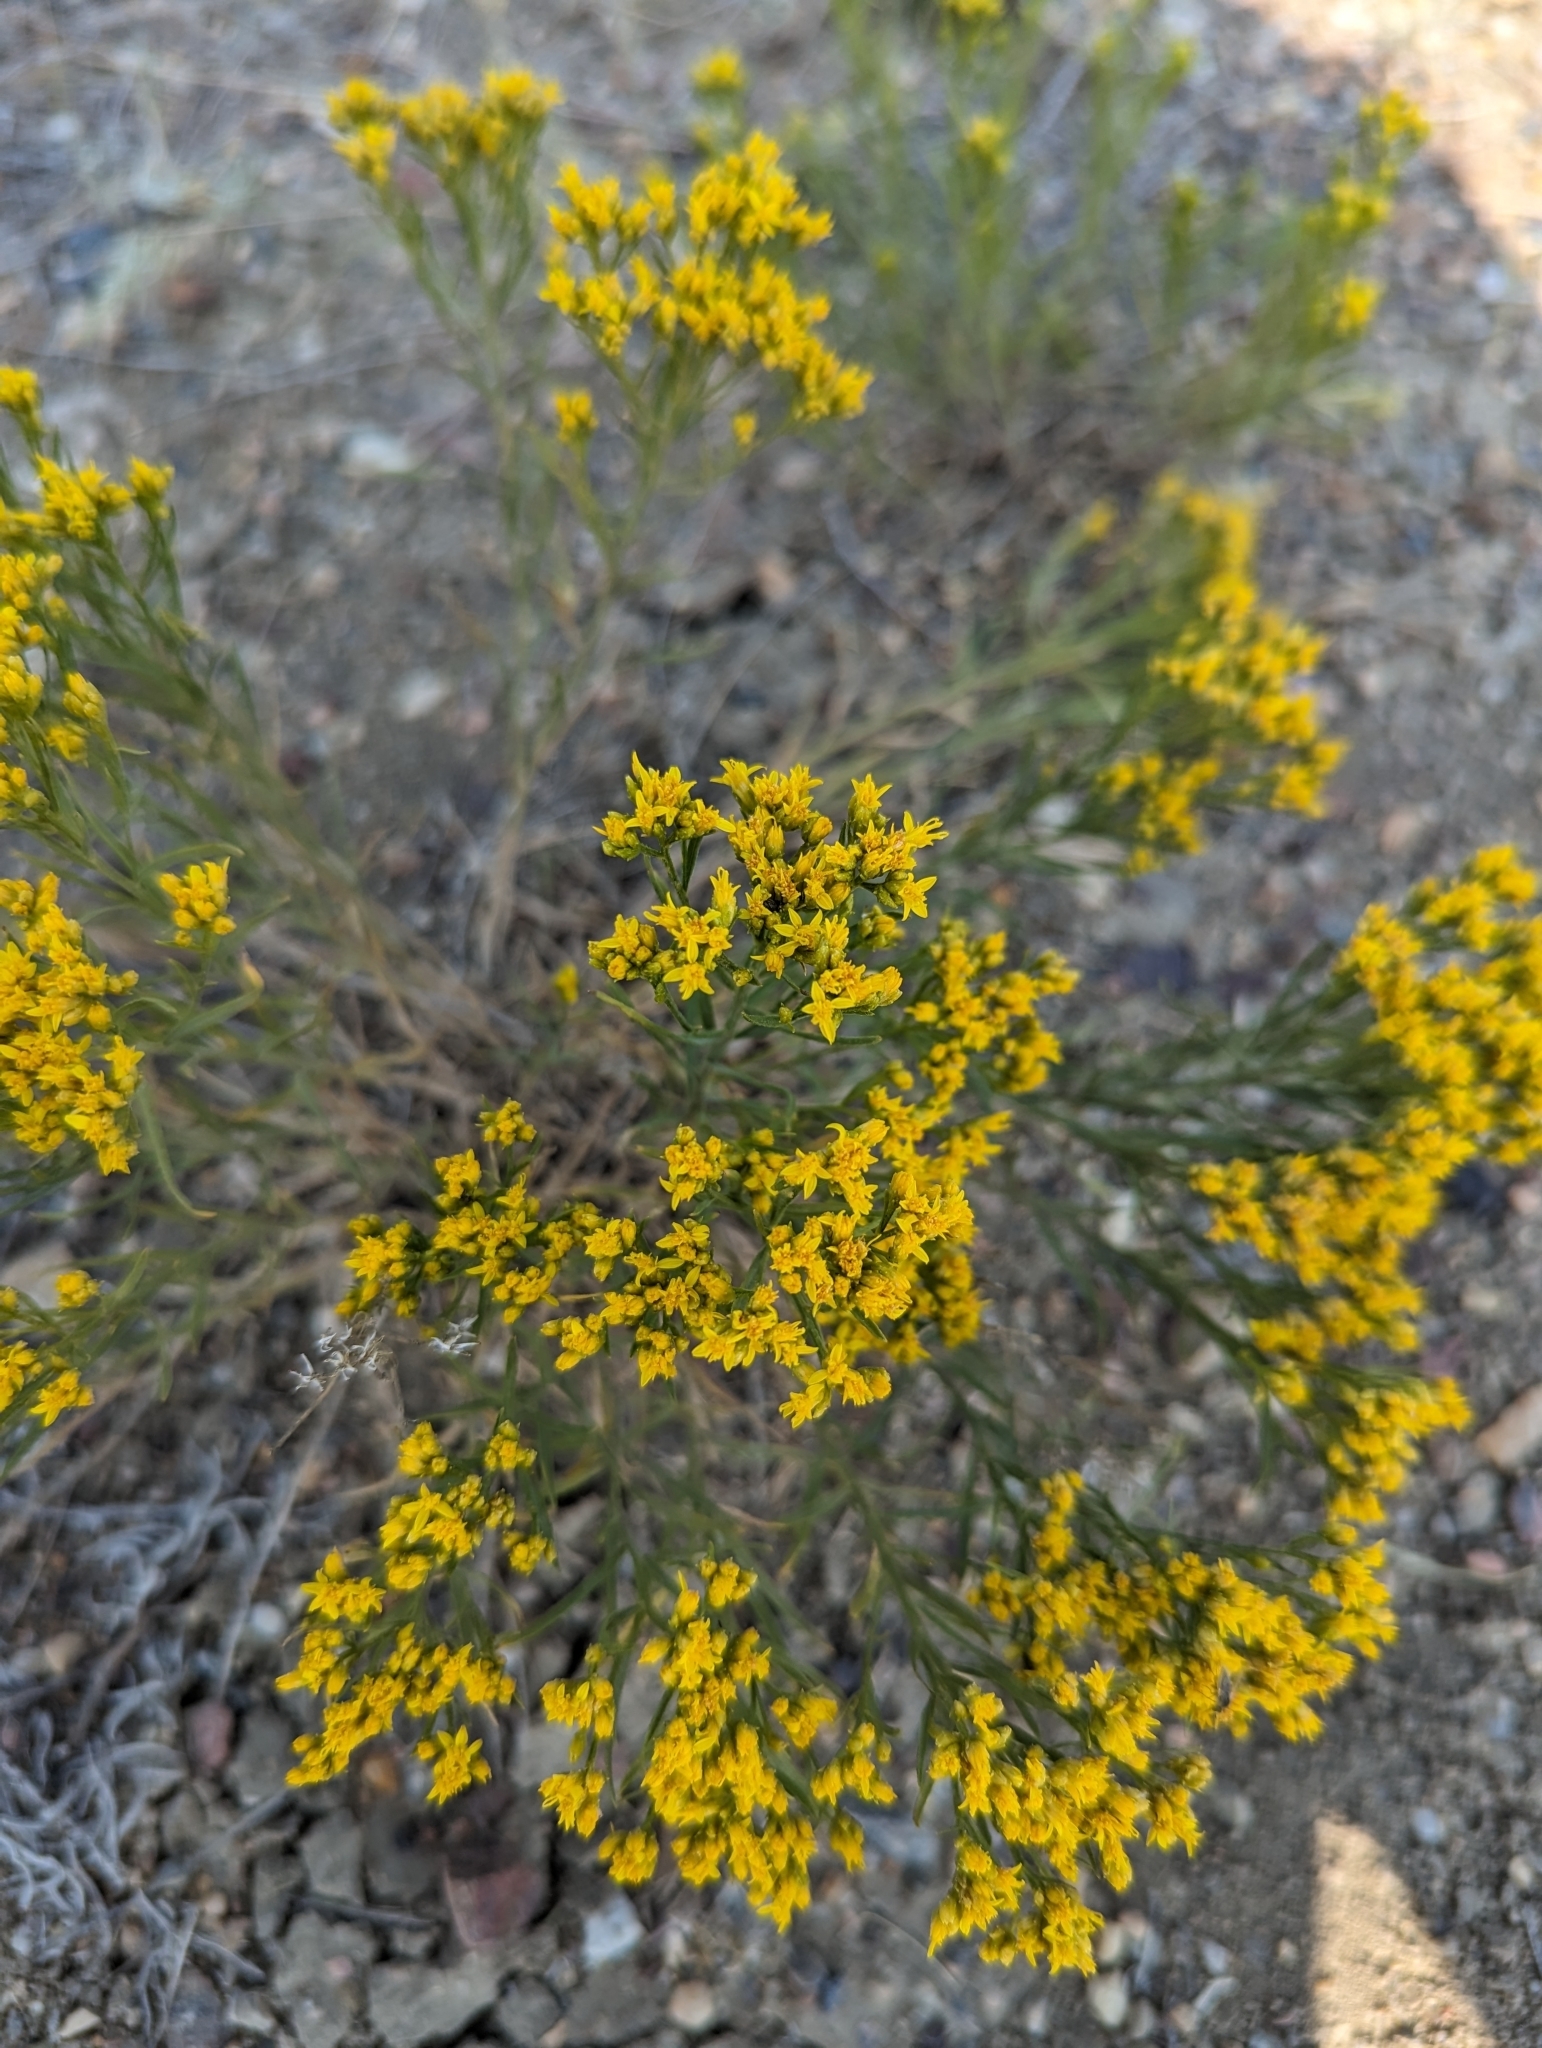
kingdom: Plantae
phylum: Tracheophyta
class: Magnoliopsida
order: Asterales
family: Asteraceae
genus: Gutierrezia
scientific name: Gutierrezia sarothrae
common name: Broom snakeweed
